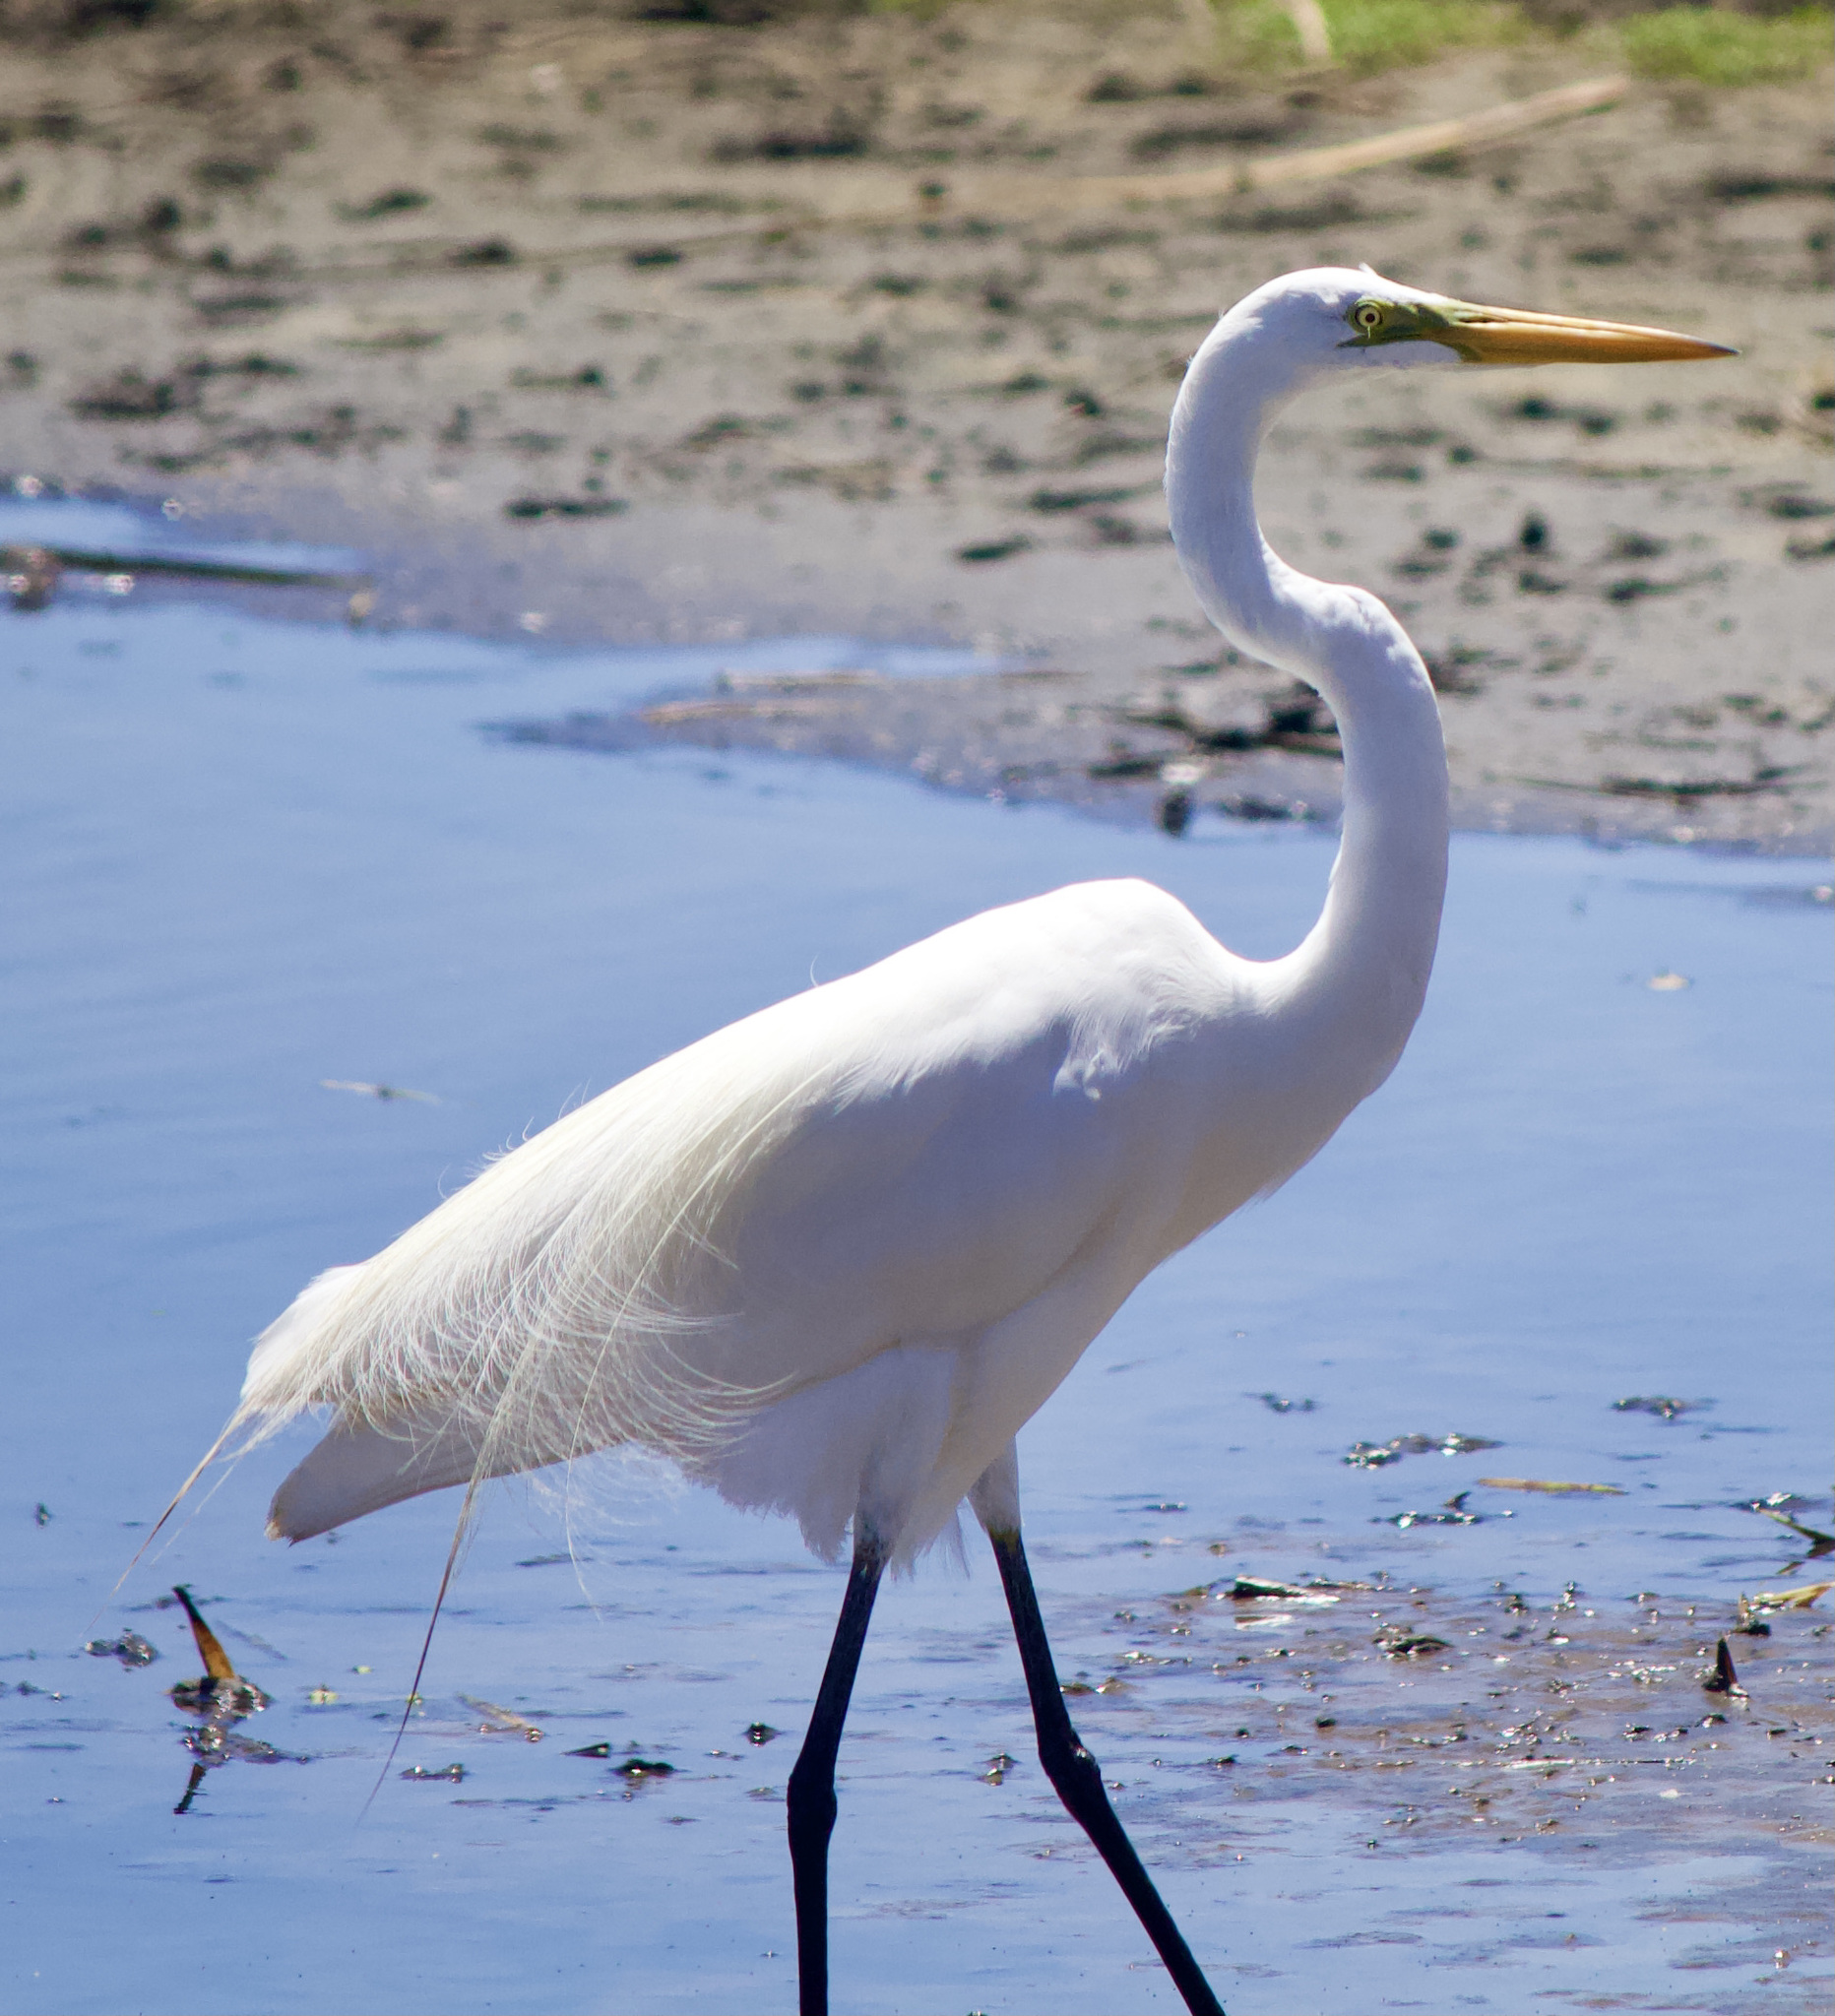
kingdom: Animalia
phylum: Chordata
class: Aves
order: Pelecaniformes
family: Ardeidae
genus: Ardea
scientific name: Ardea alba
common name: Great egret
